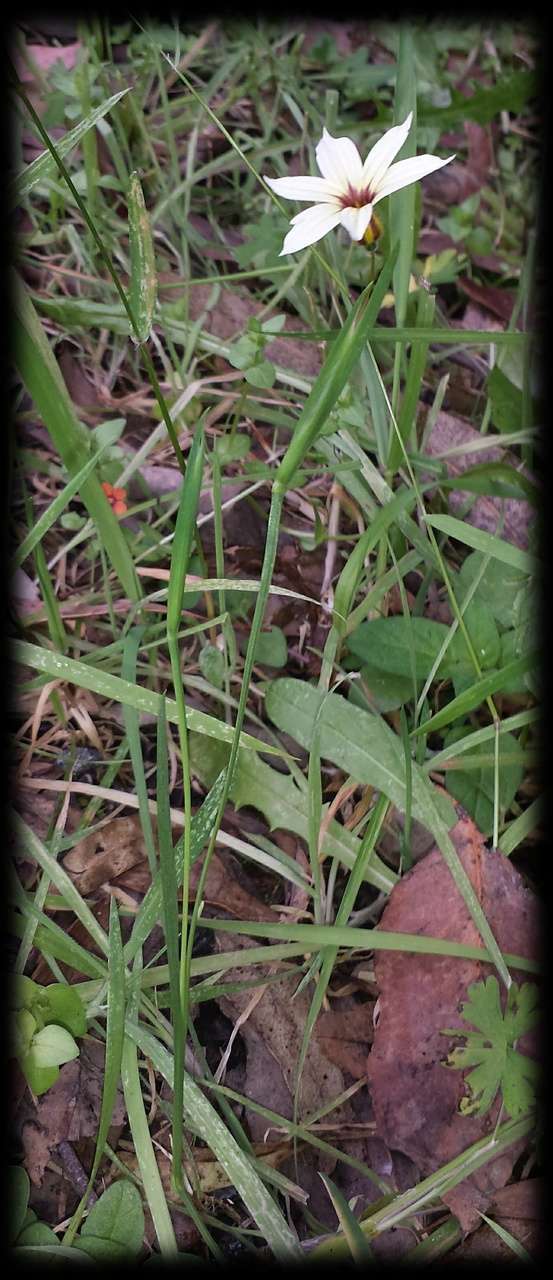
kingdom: Plantae
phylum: Tracheophyta
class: Liliopsida
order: Asparagales
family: Iridaceae
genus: Sisyrinchium
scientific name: Sisyrinchium micranthum
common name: Bermuda pigroot
